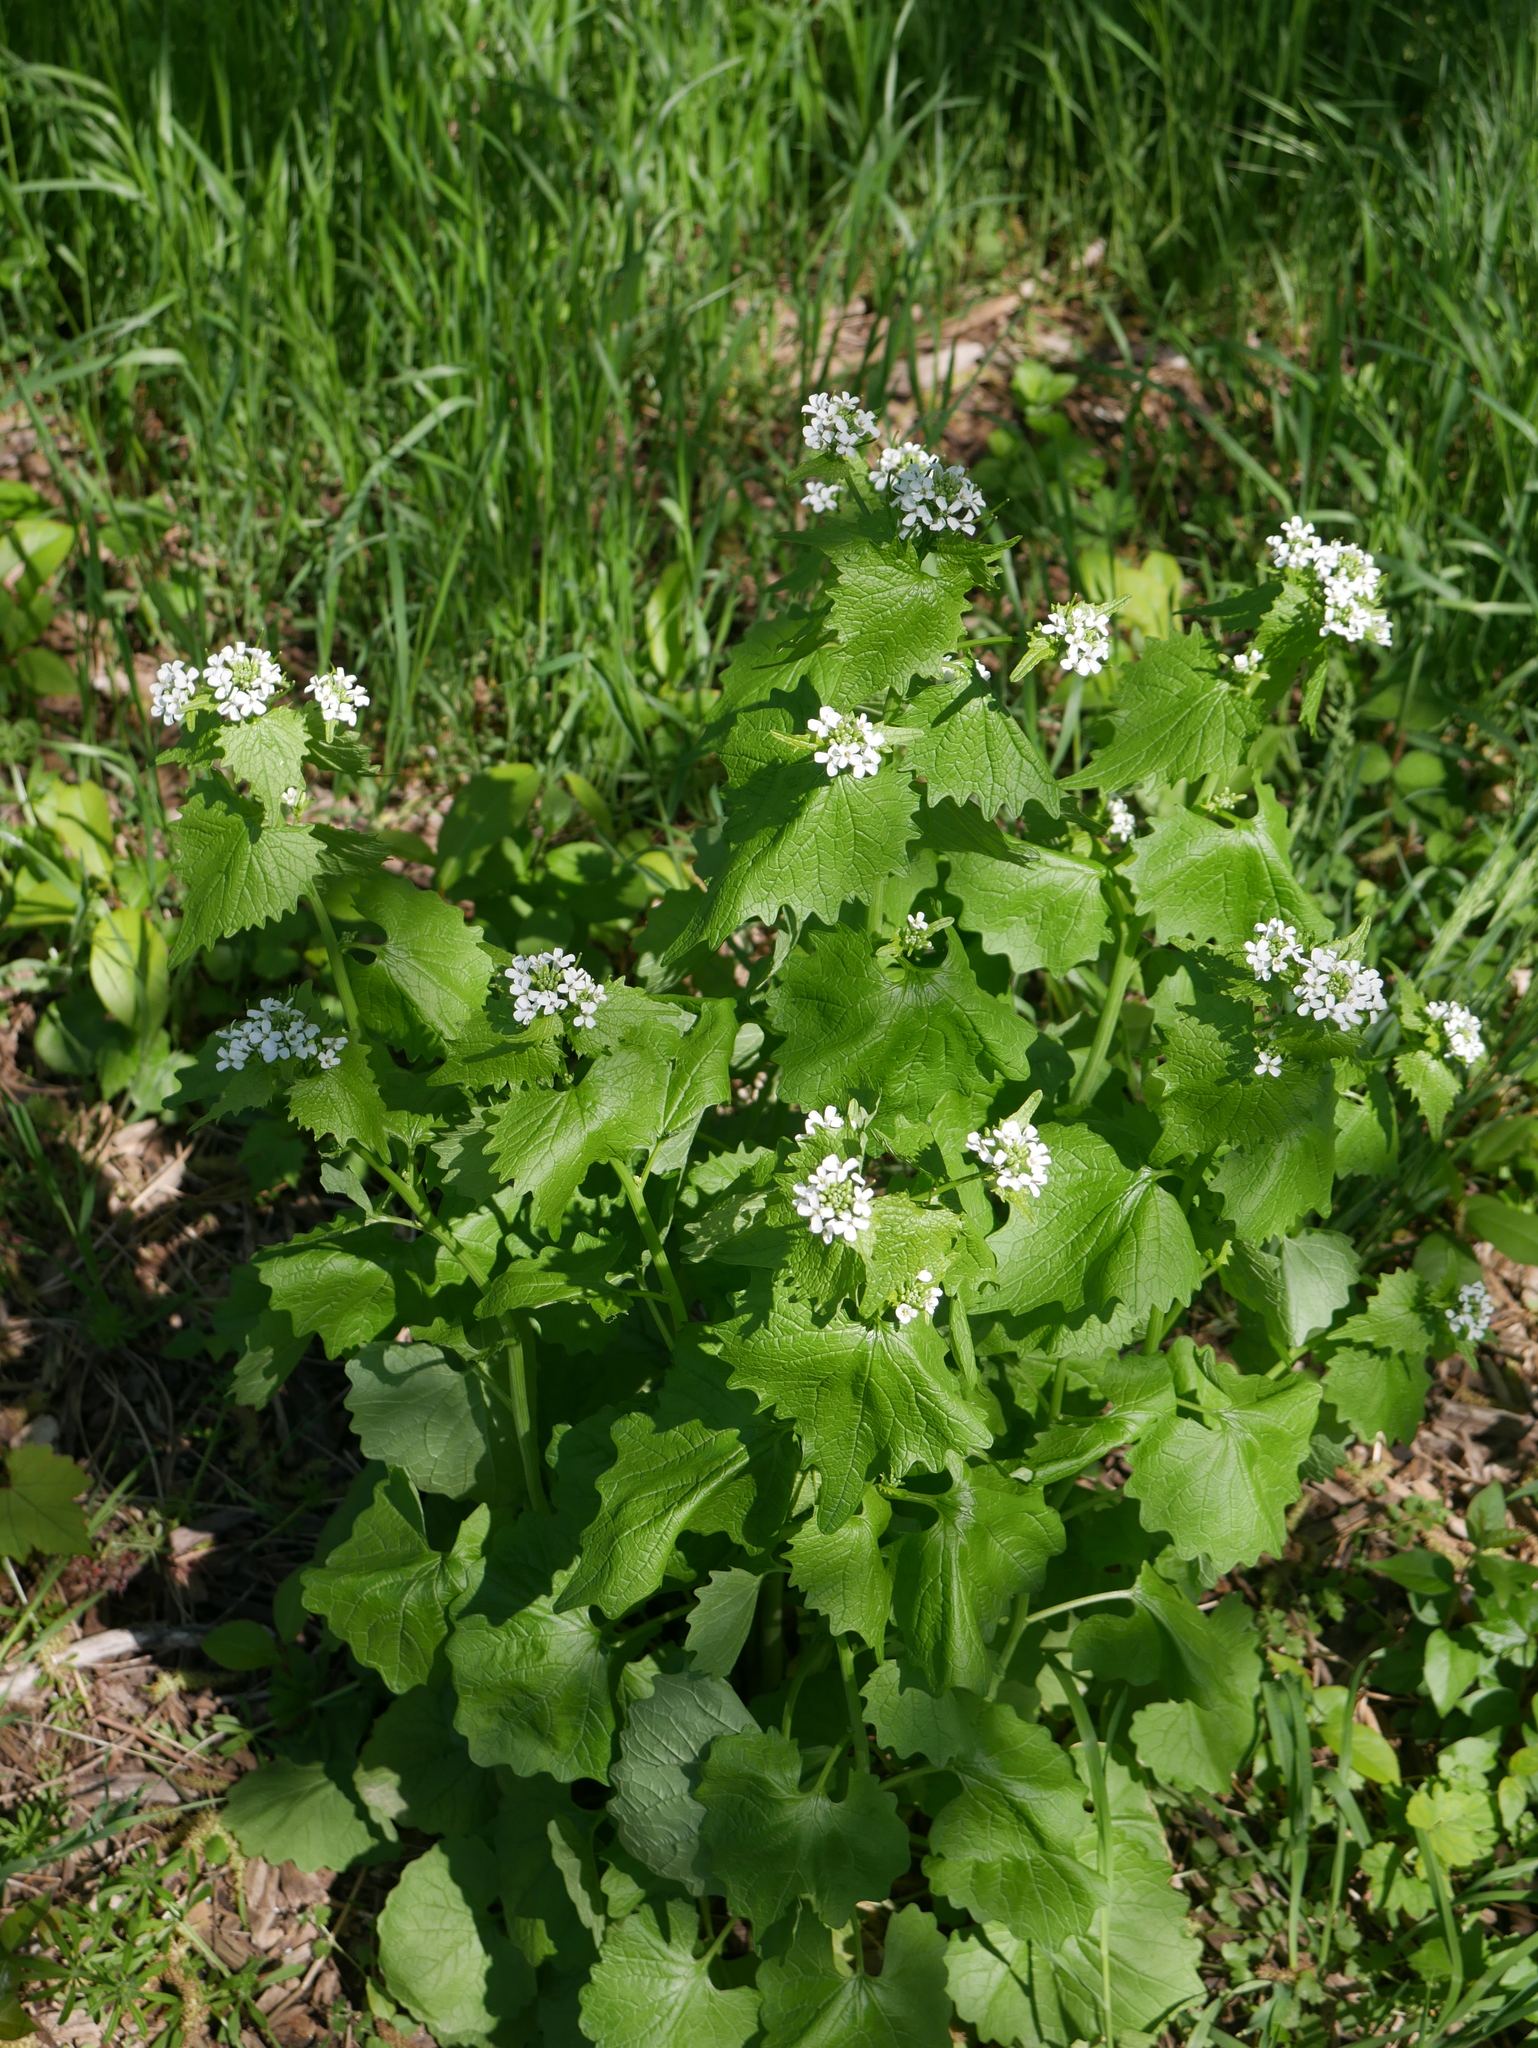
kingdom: Plantae
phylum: Tracheophyta
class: Magnoliopsida
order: Brassicales
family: Brassicaceae
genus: Alliaria
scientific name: Alliaria petiolata
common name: Garlic mustard
